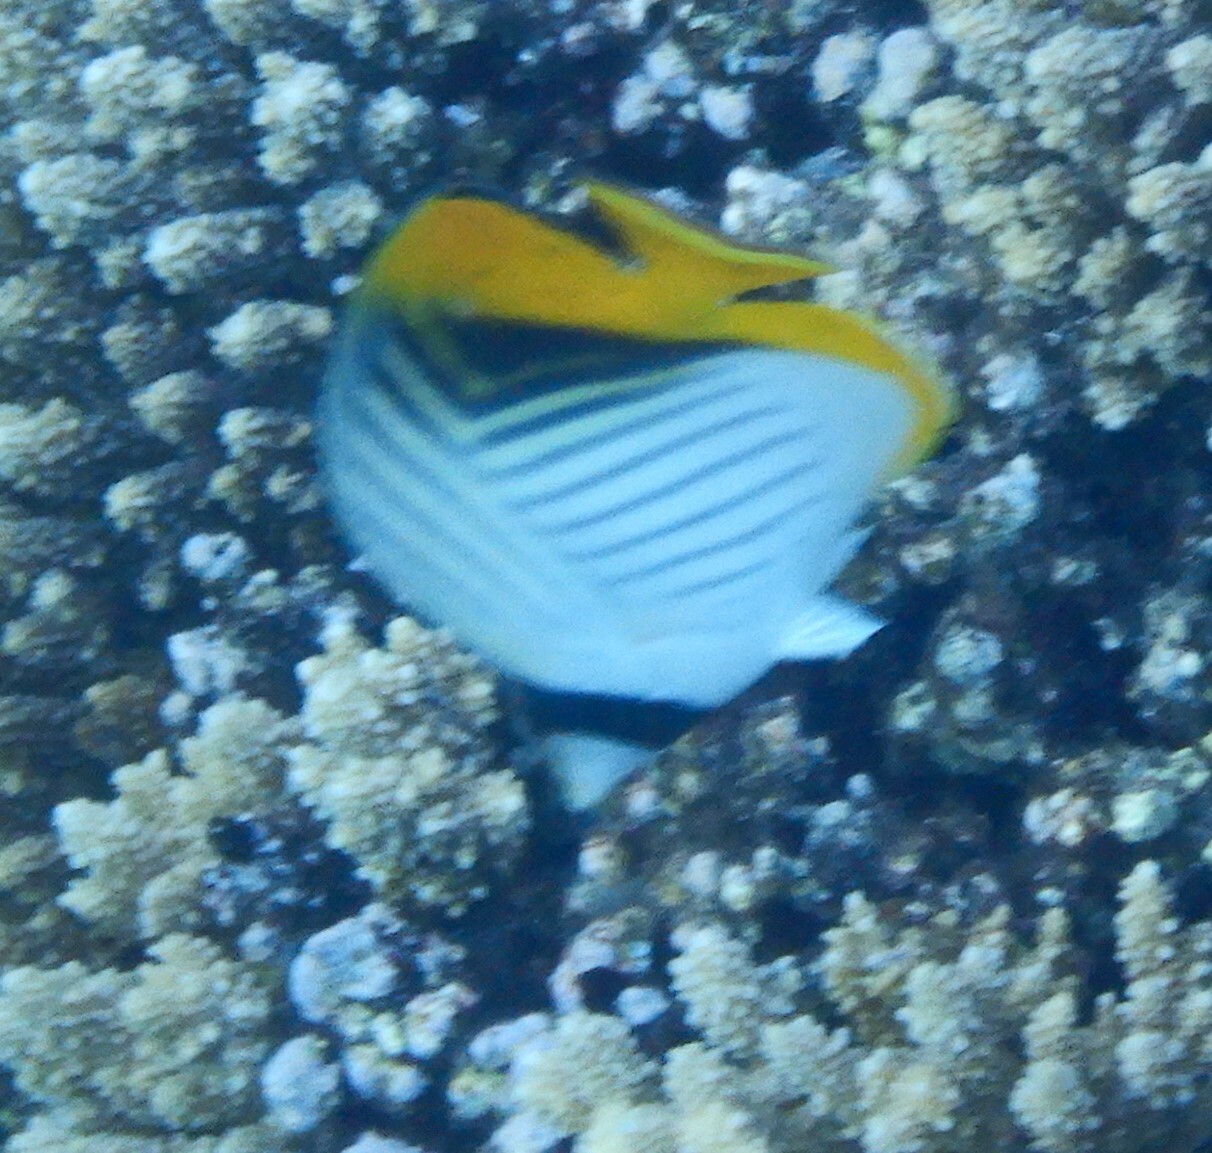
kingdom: Animalia
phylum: Chordata
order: Perciformes
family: Chaetodontidae
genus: Chaetodon
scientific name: Chaetodon auriga
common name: Threadfin butterflyfish
